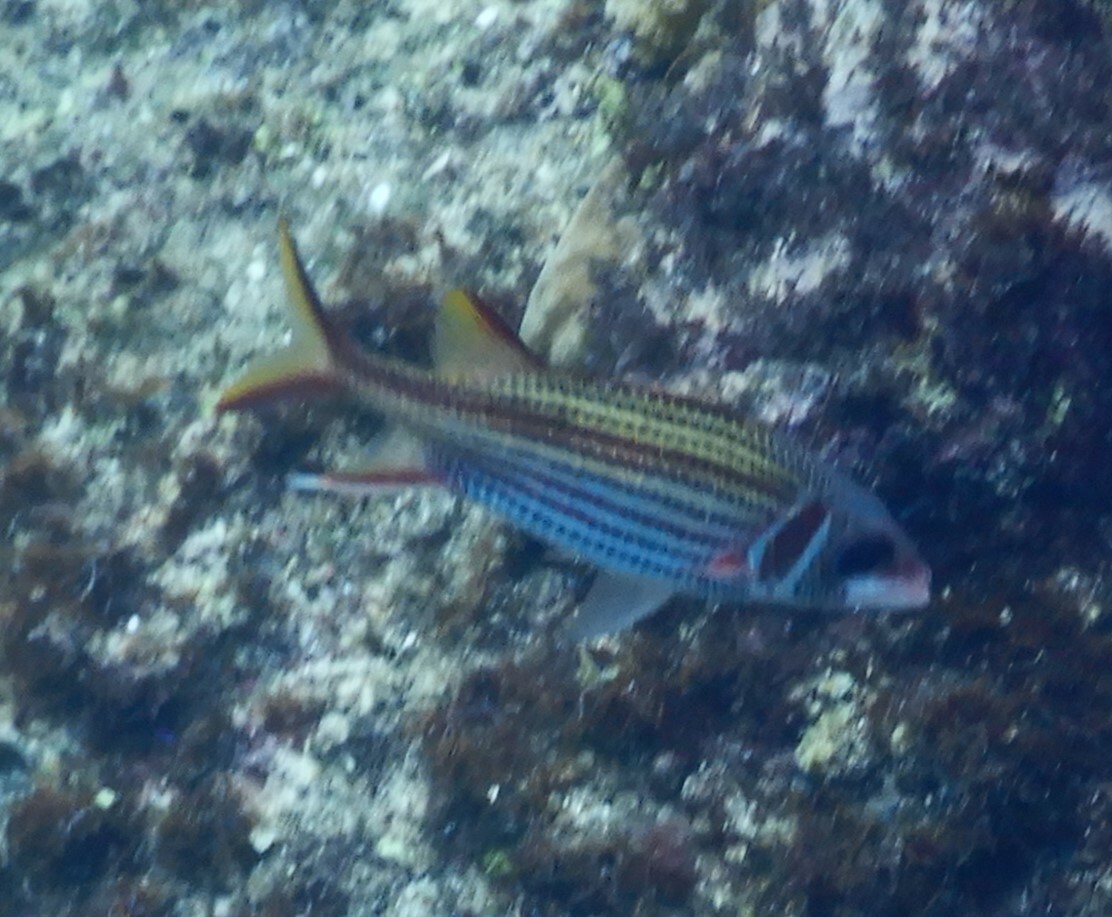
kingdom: Animalia
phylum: Chordata
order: Beryciformes
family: Holocentridae
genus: Neoniphon
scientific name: Neoniphon sammara
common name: Sammara squirrelfish
